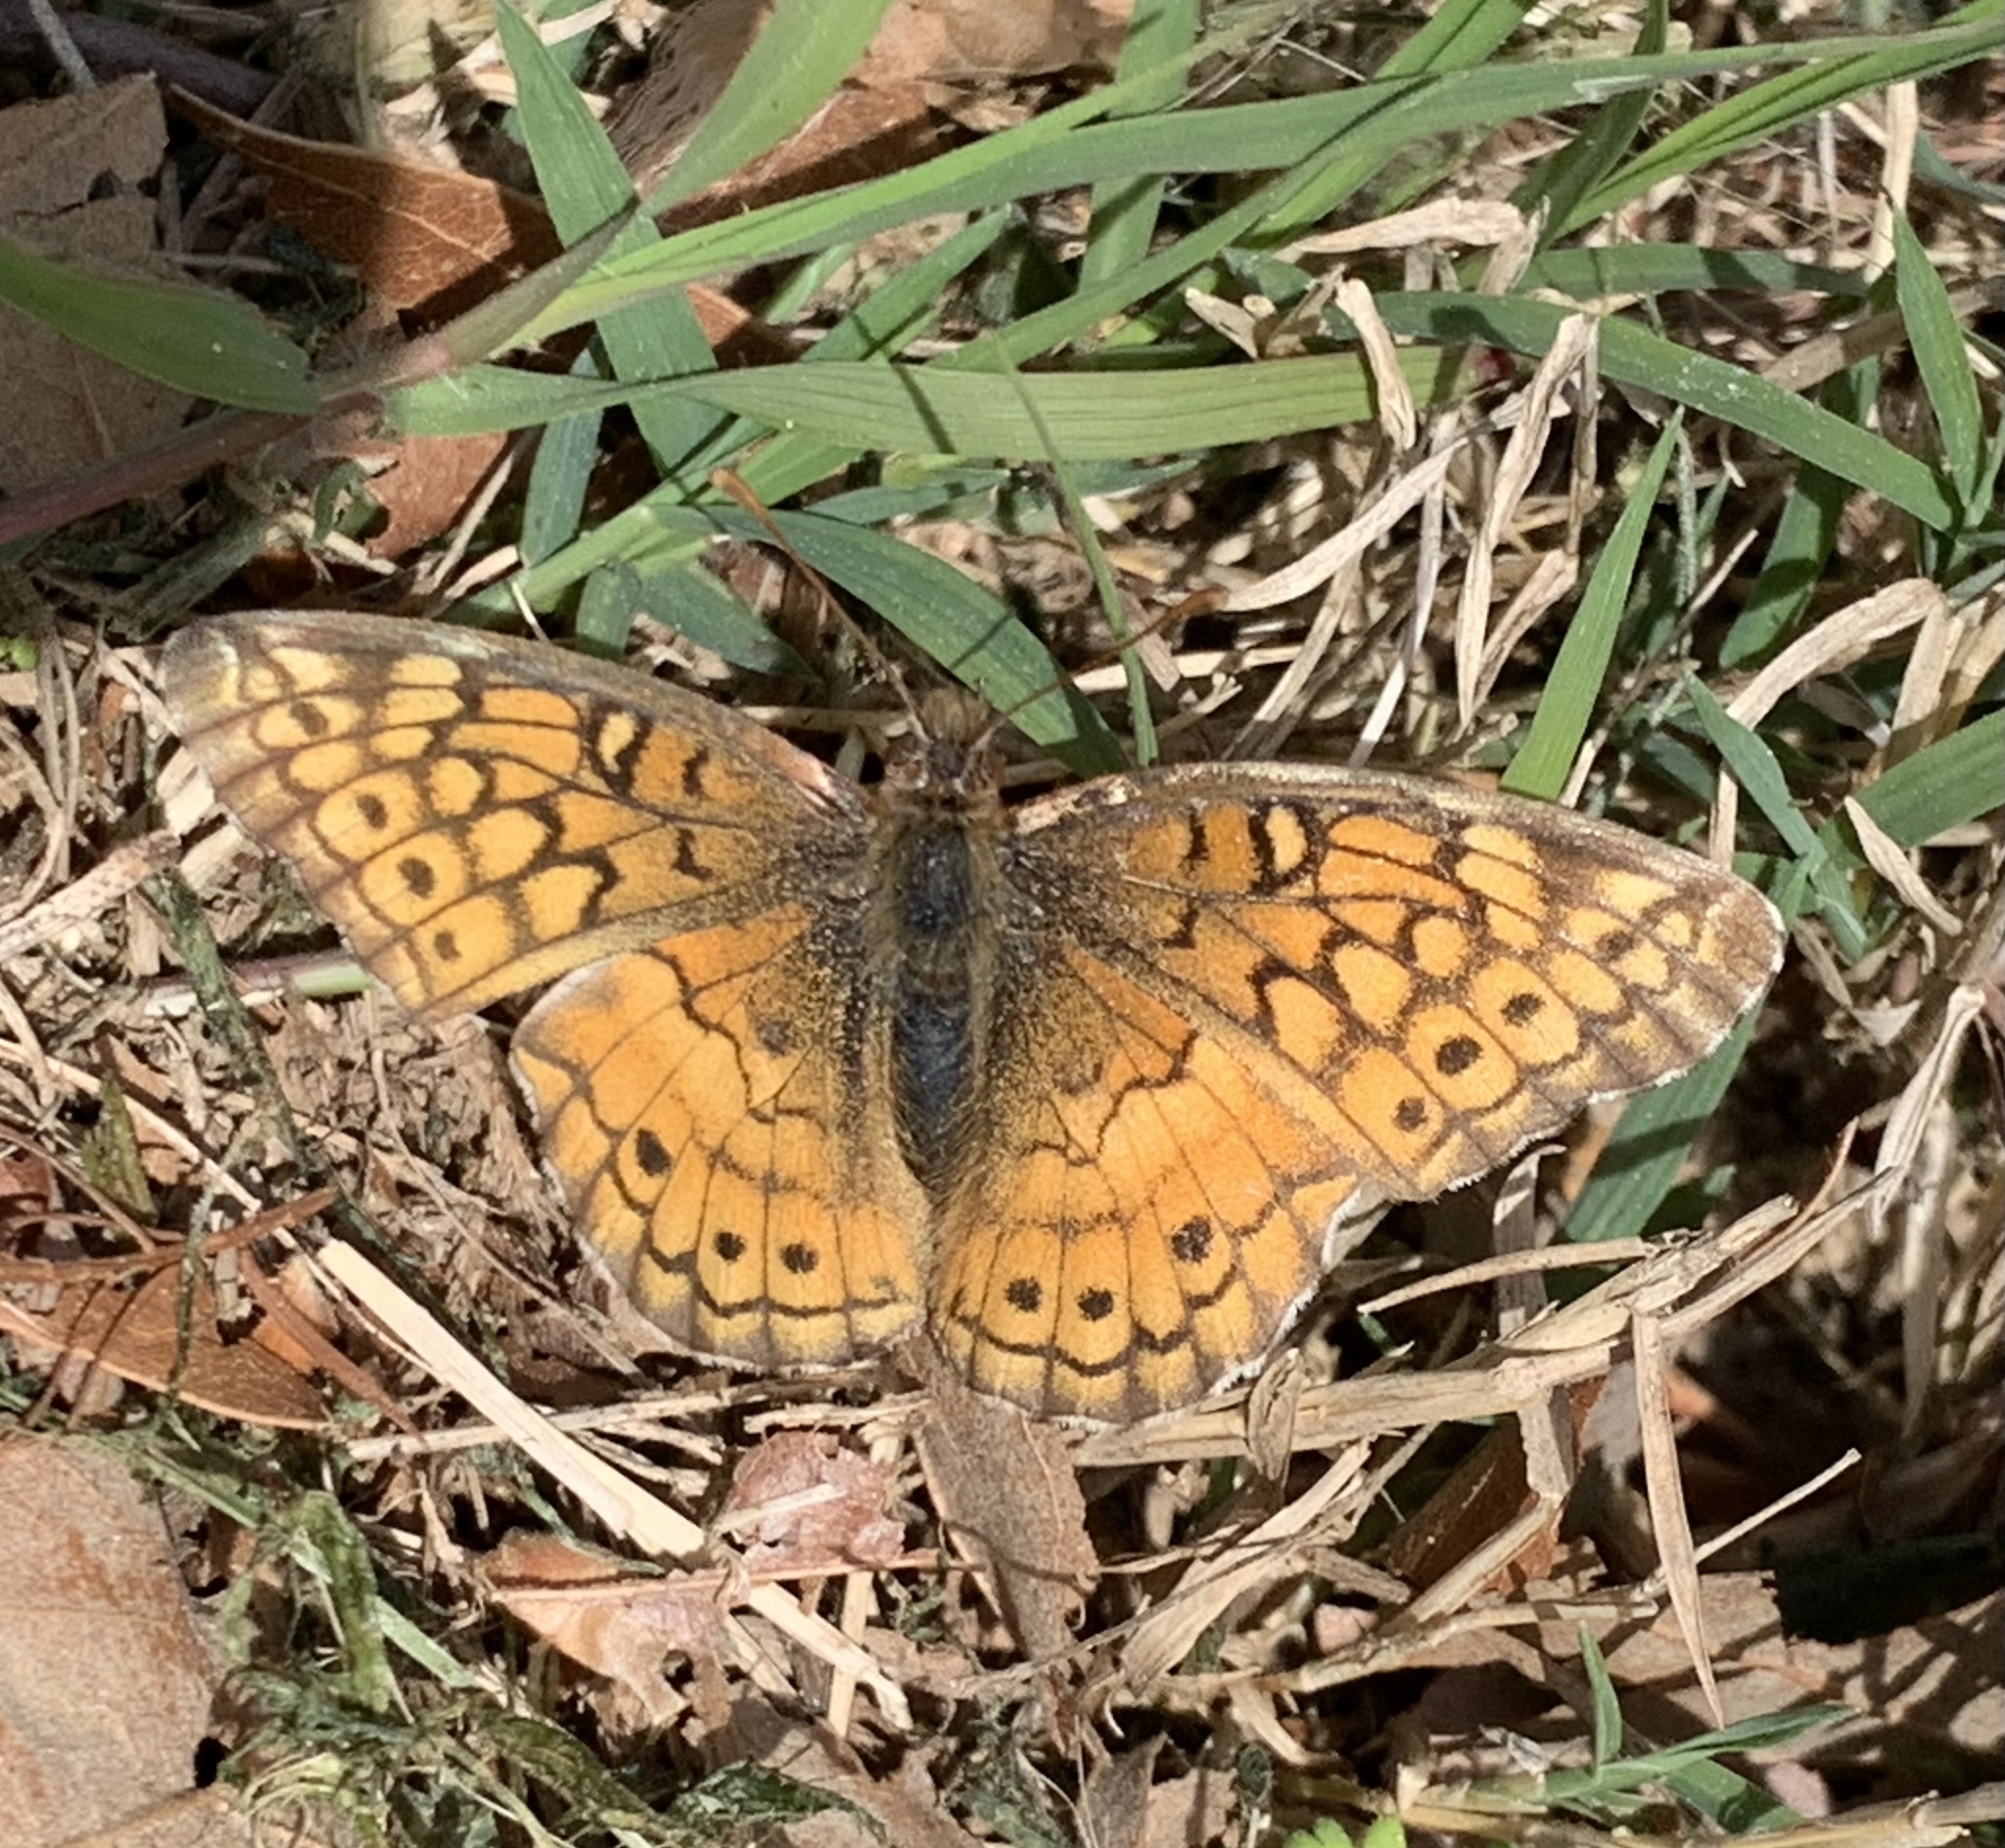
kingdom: Animalia
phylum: Arthropoda
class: Insecta
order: Lepidoptera
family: Nymphalidae
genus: Euptoieta
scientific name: Euptoieta claudia
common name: Variegated fritillary
